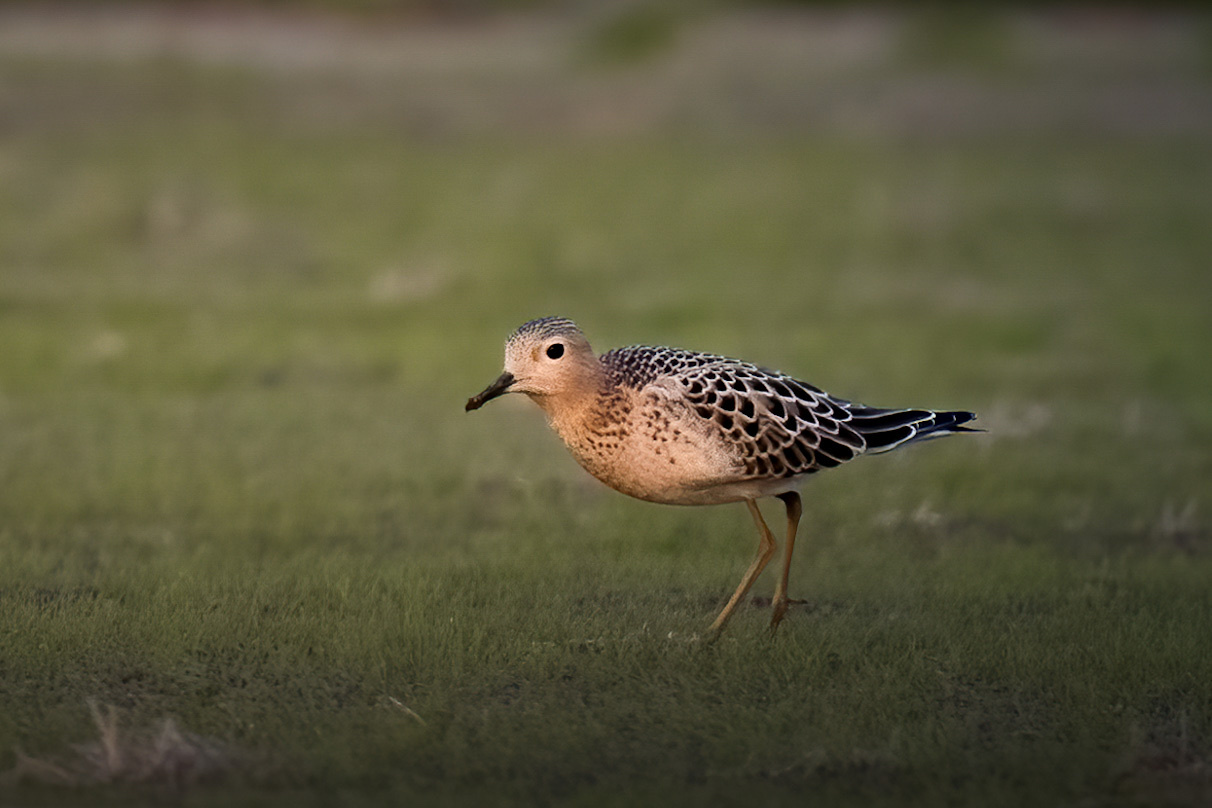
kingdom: Animalia
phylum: Chordata
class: Aves
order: Charadriiformes
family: Scolopacidae
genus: Calidris
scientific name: Calidris subruficollis
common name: Buff-breasted sandpiper
